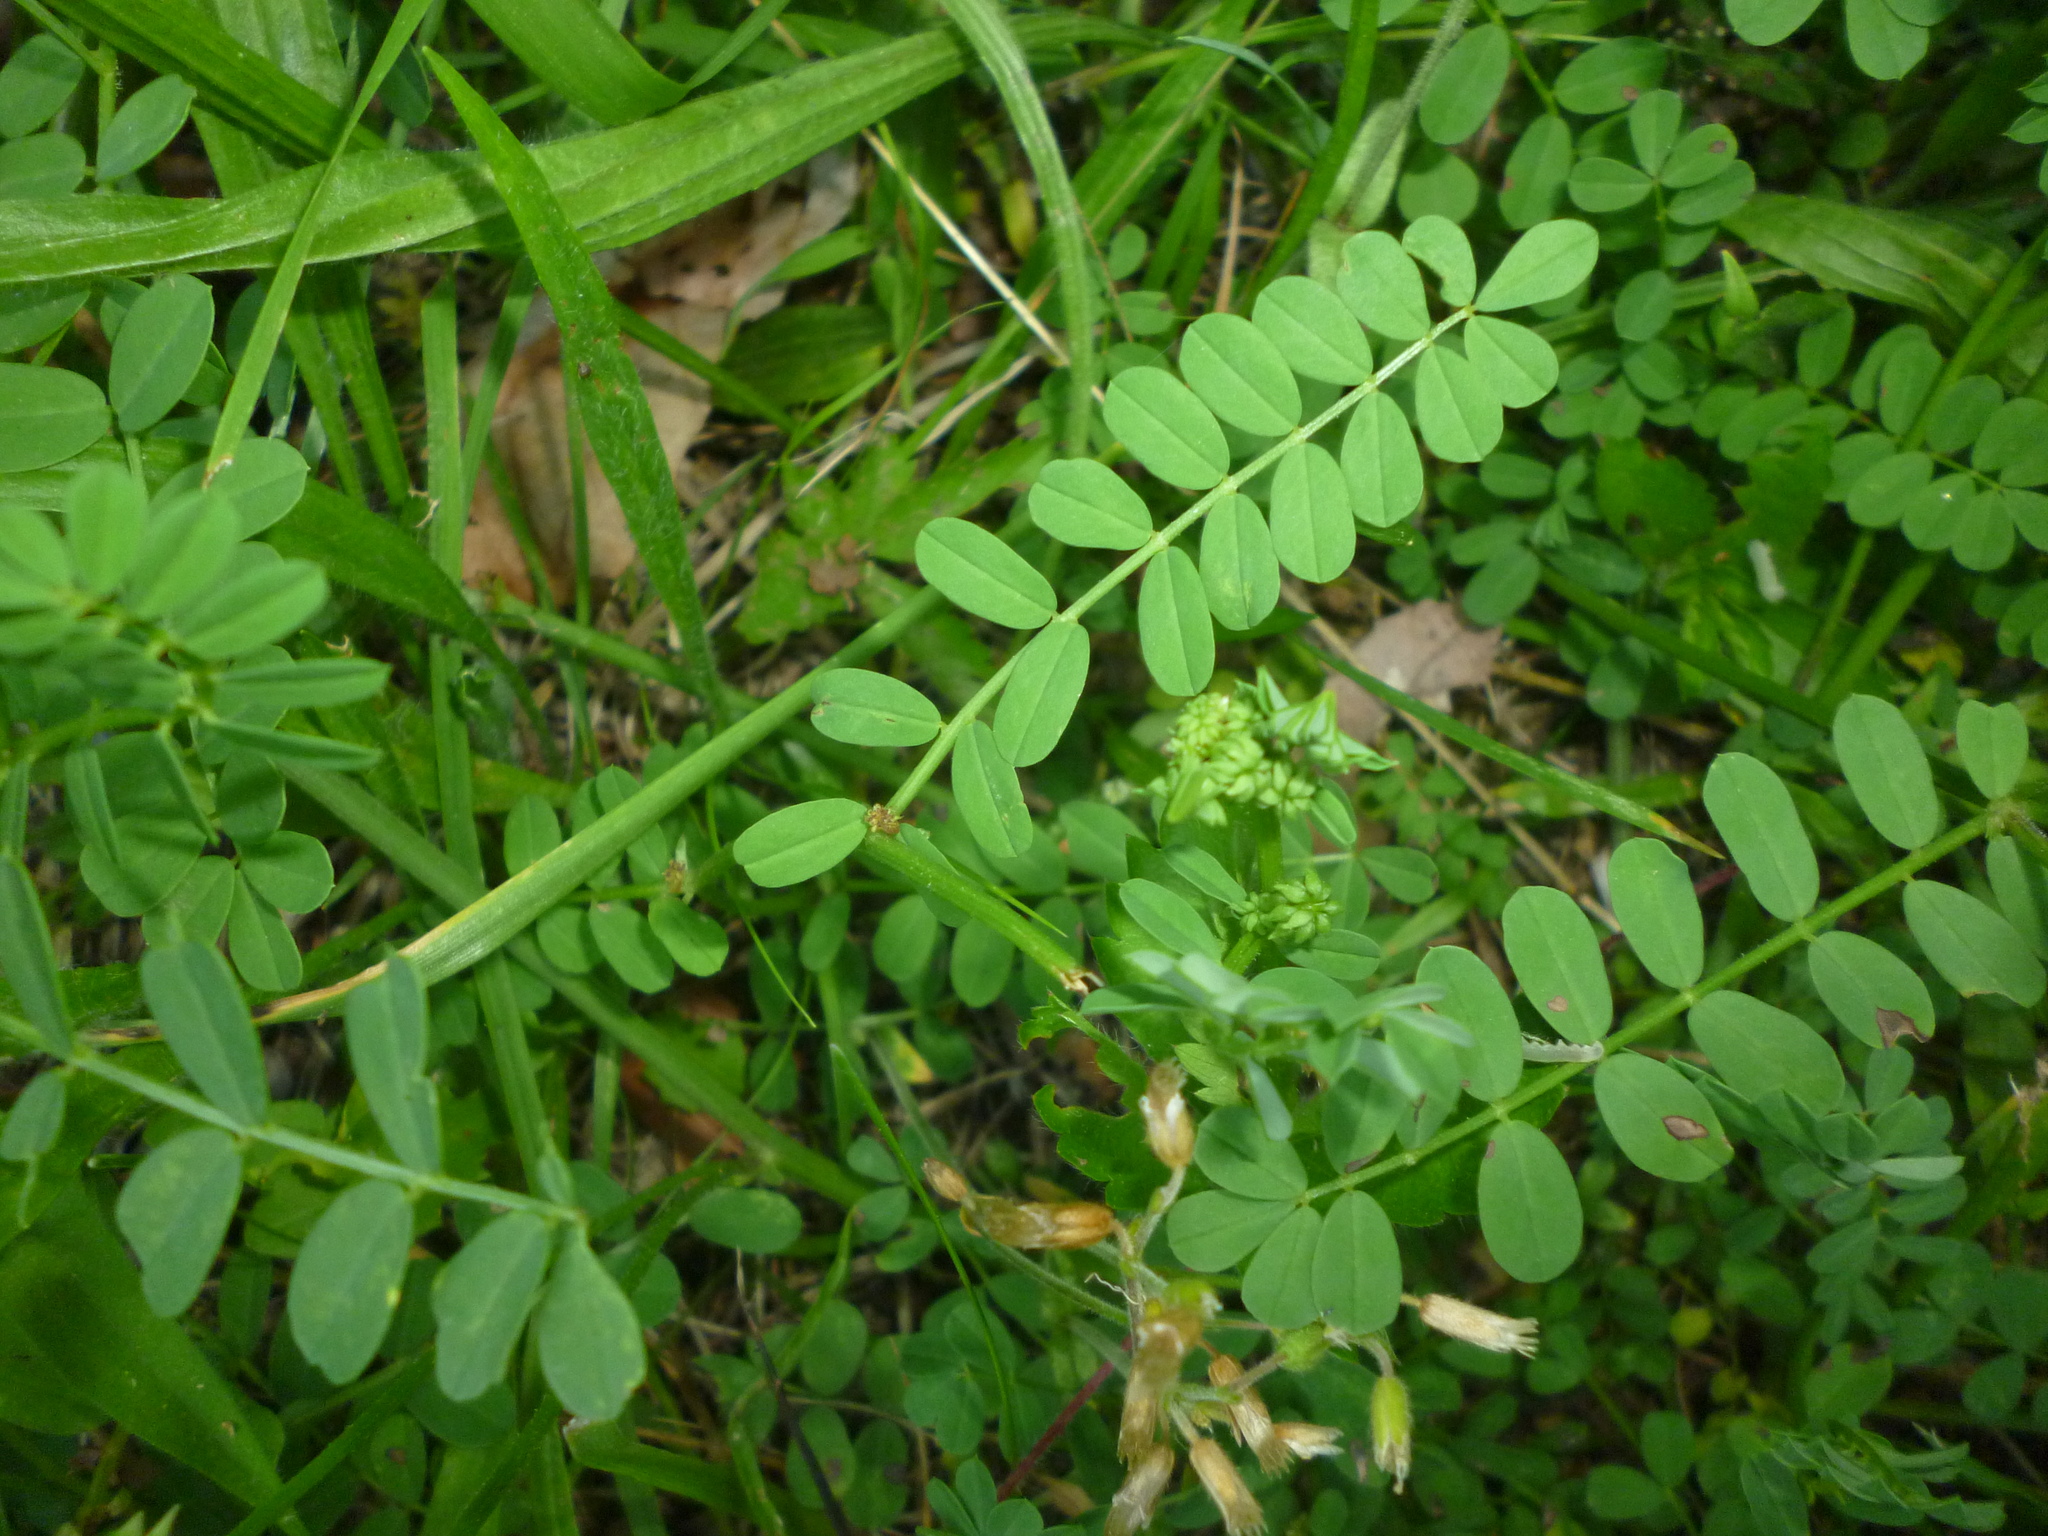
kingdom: Plantae
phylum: Tracheophyta
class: Magnoliopsida
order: Fabales
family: Fabaceae
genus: Coronilla
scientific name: Coronilla varia
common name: Crownvetch
